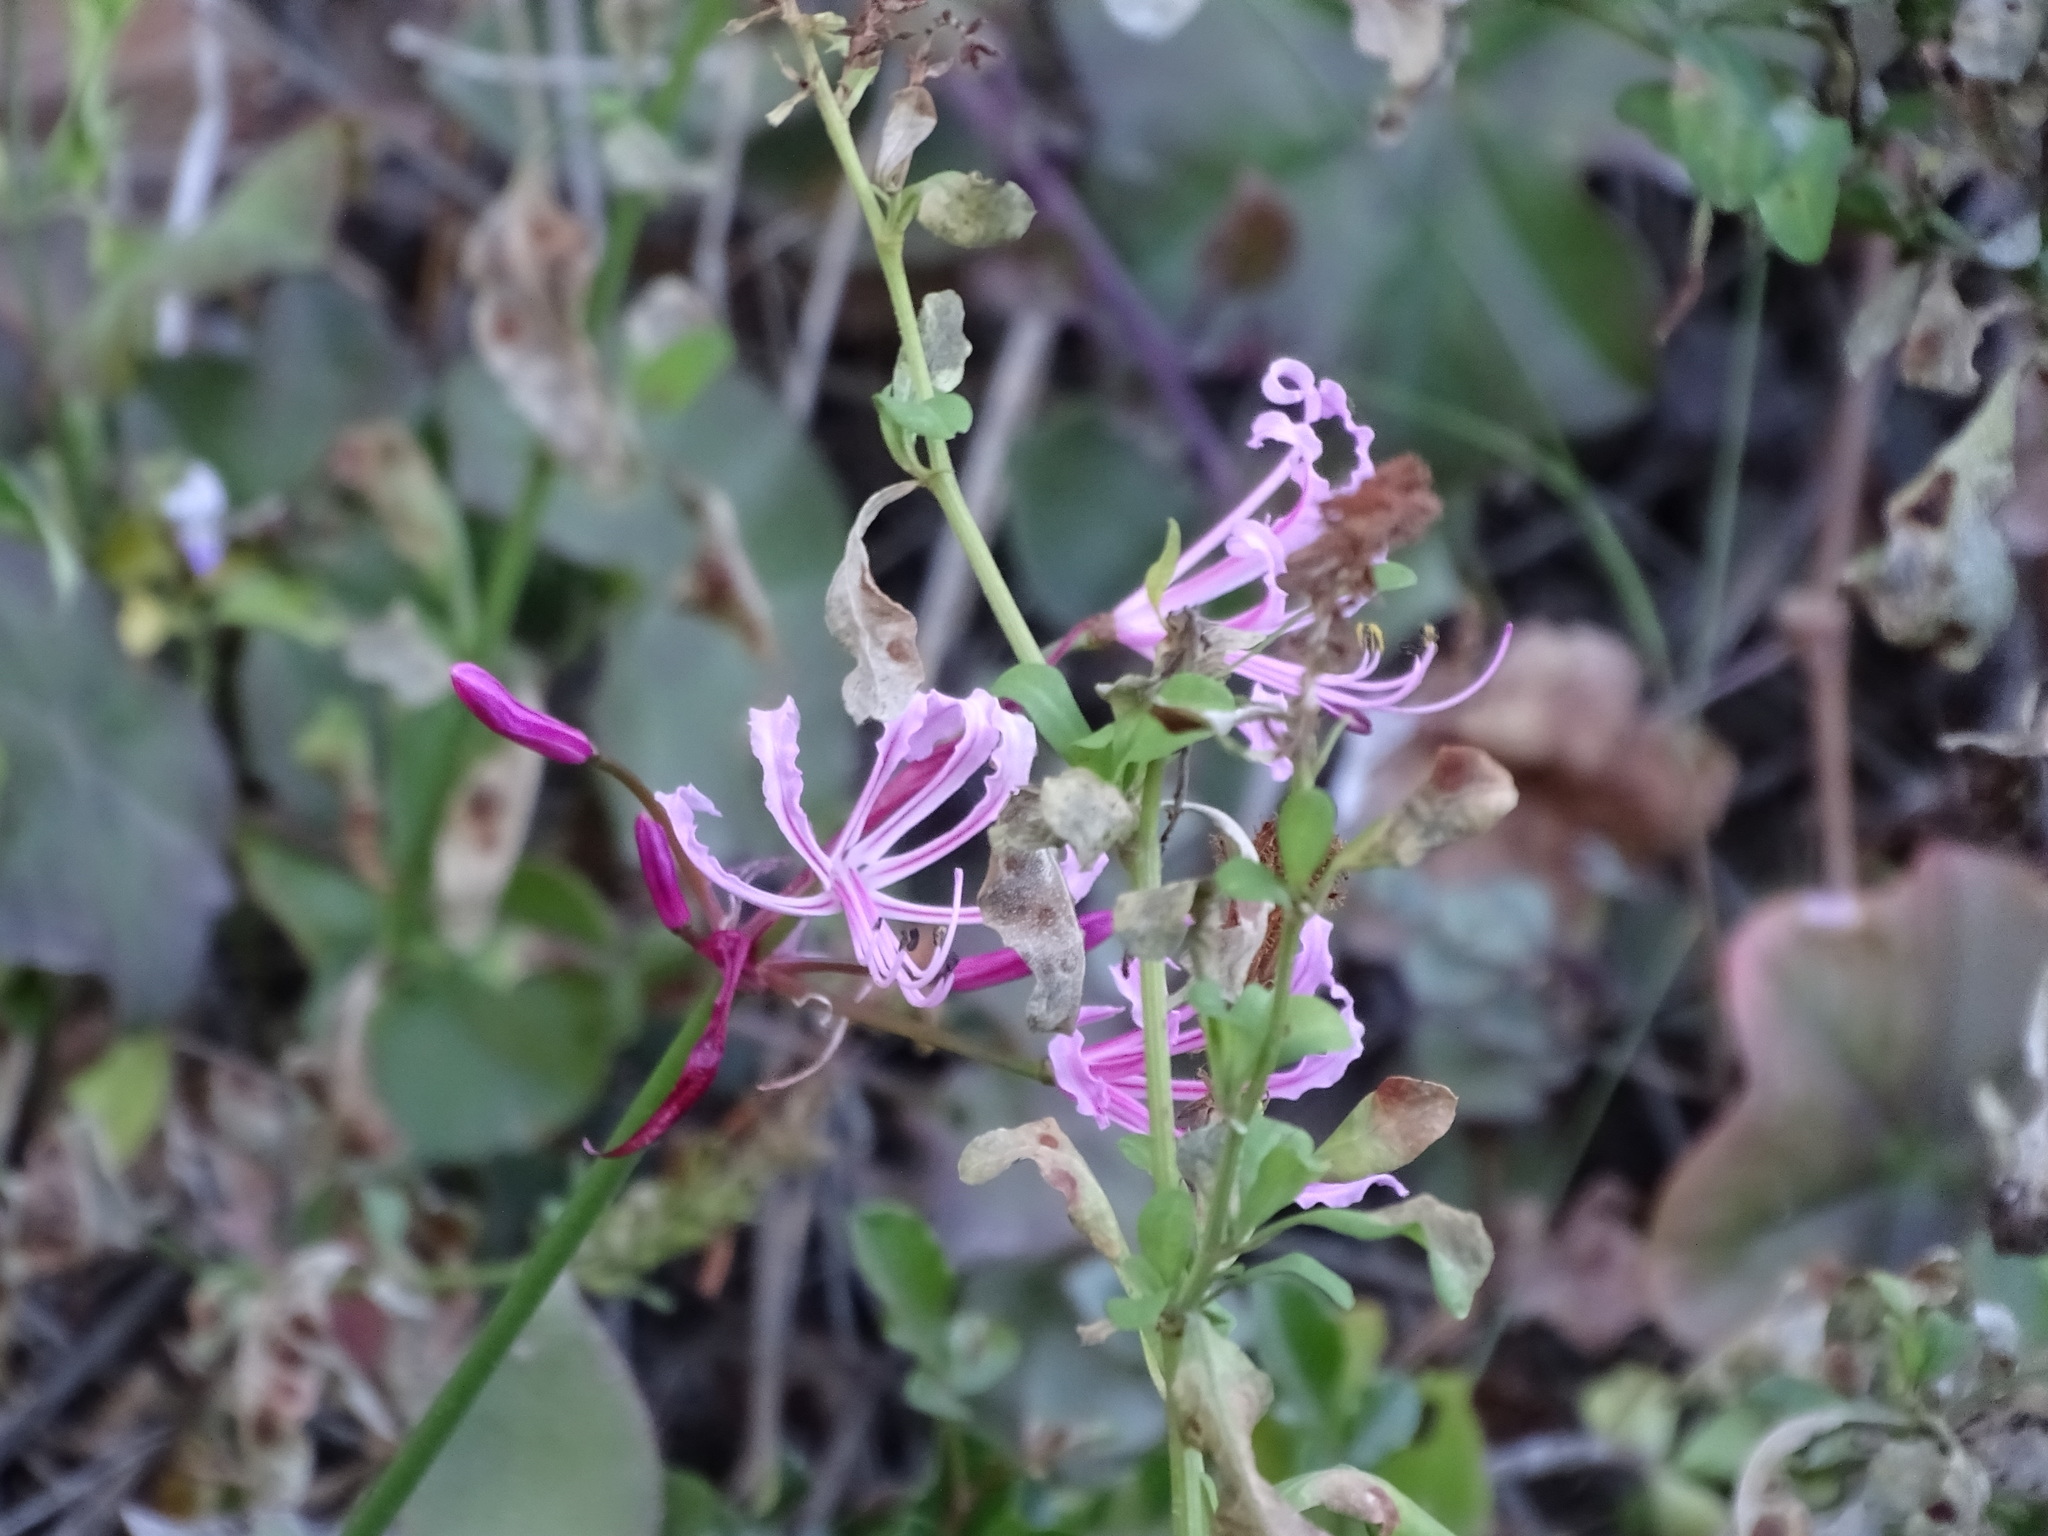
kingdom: Plantae
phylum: Tracheophyta
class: Liliopsida
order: Asparagales
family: Amaryllidaceae
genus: Nerine
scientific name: Nerine humilis
